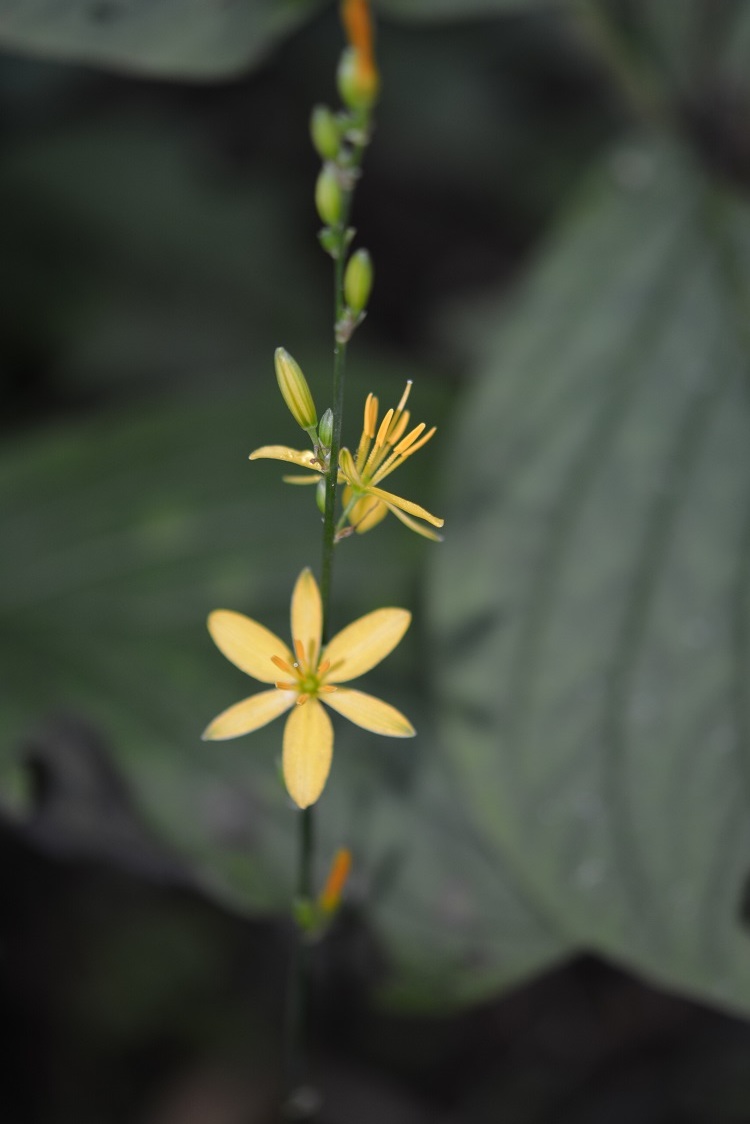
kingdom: Plantae
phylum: Tracheophyta
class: Liliopsida
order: Asparagales
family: Asparagaceae
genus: Echeandia
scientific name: Echeandia breedlovei
